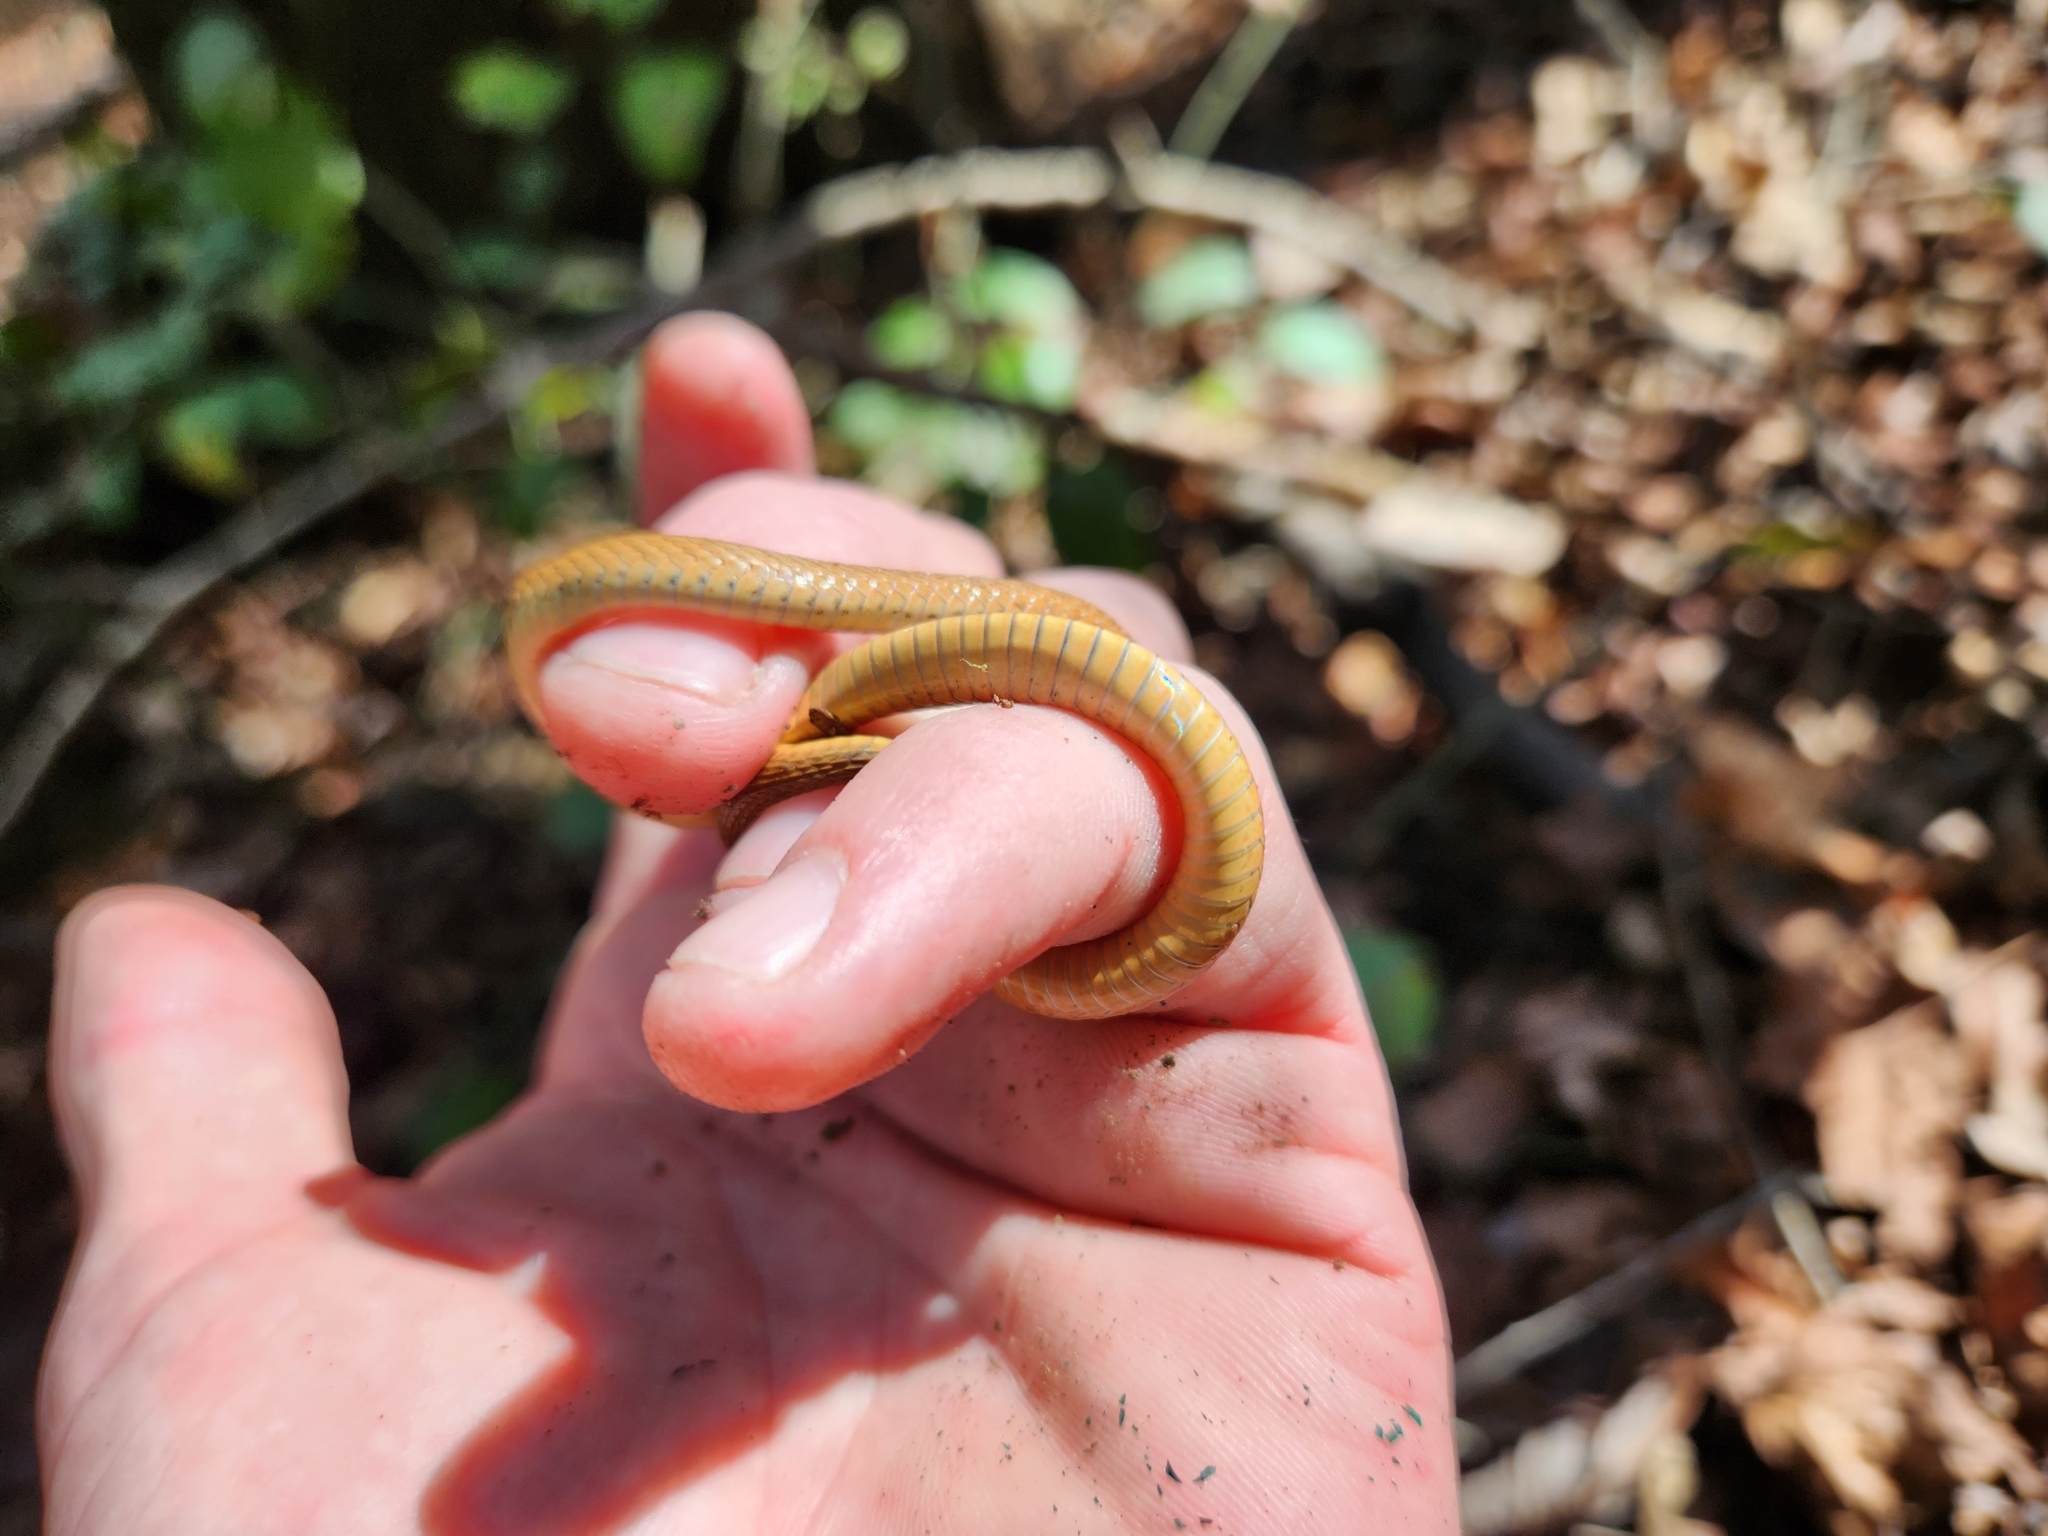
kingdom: Animalia
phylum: Chordata
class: Squamata
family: Colubridae
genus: Storeria
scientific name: Storeria occipitomaculata
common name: Redbelly snake
